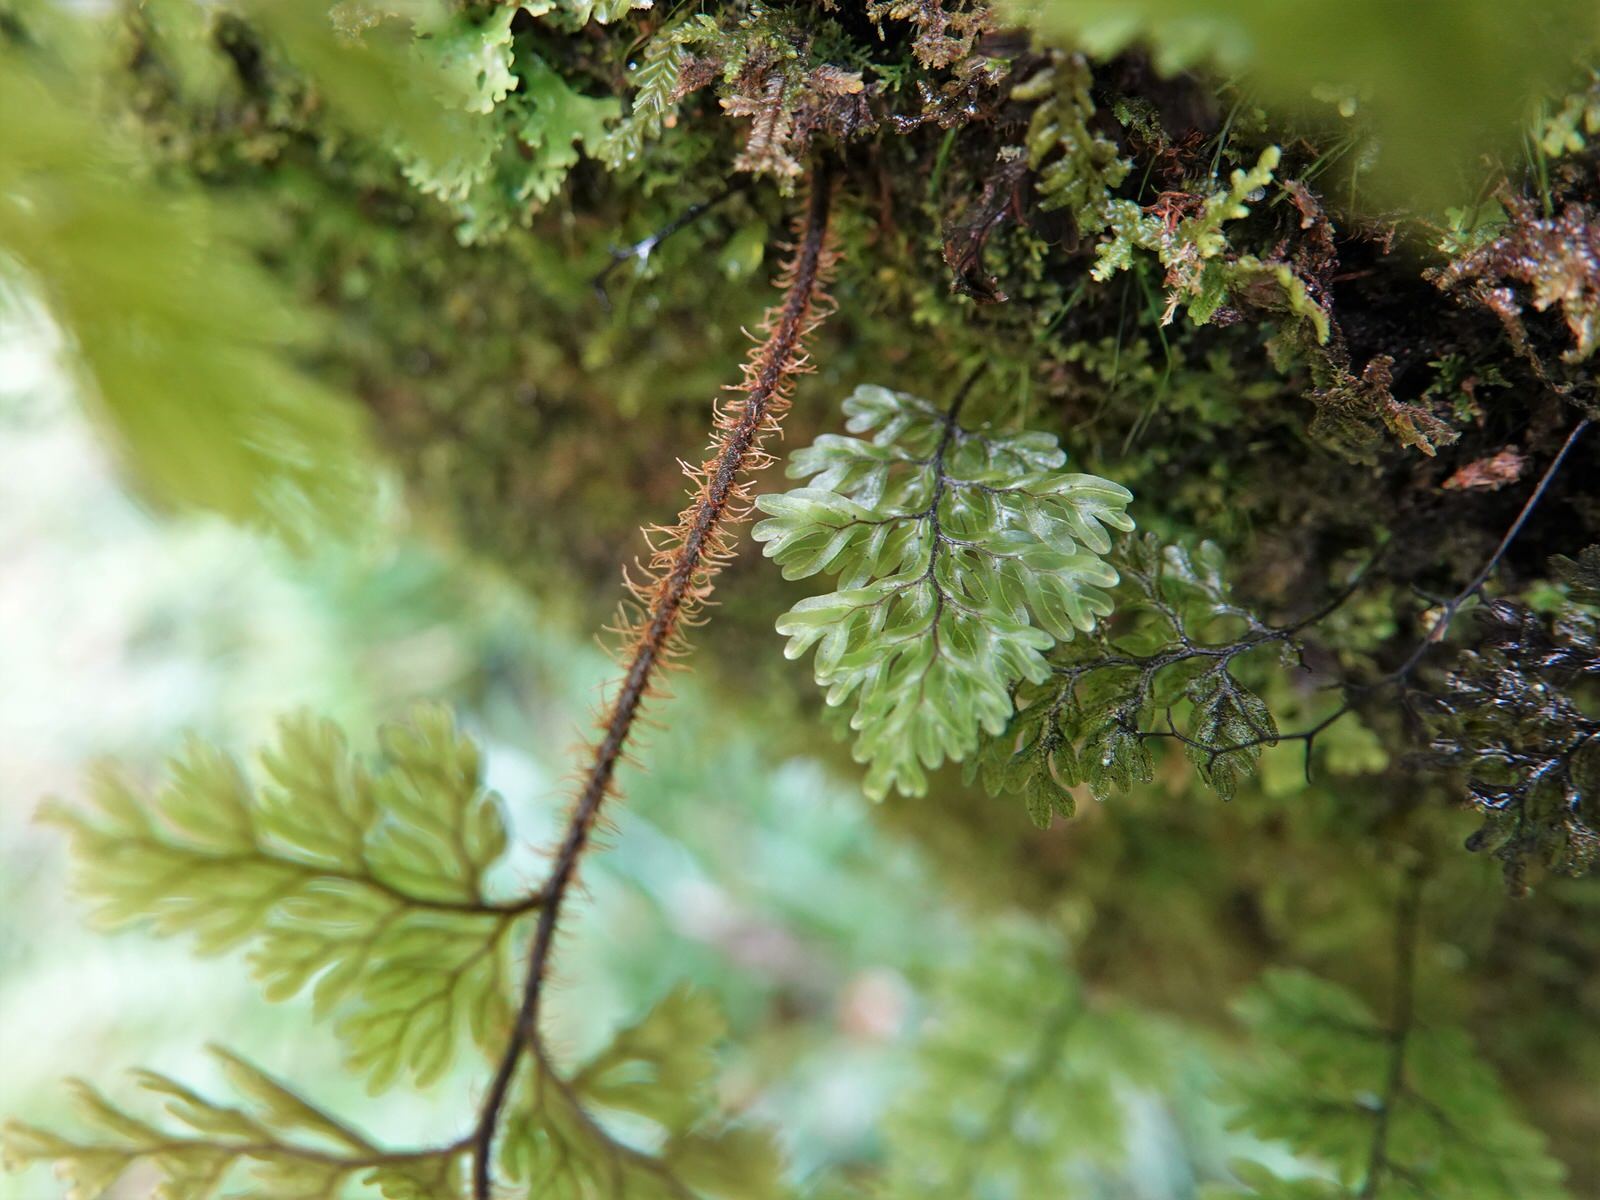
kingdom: Plantae
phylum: Tracheophyta
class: Polypodiopsida
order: Hymenophyllales
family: Hymenophyllaceae
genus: Hymenophyllum
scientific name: Hymenophyllum scabrum
